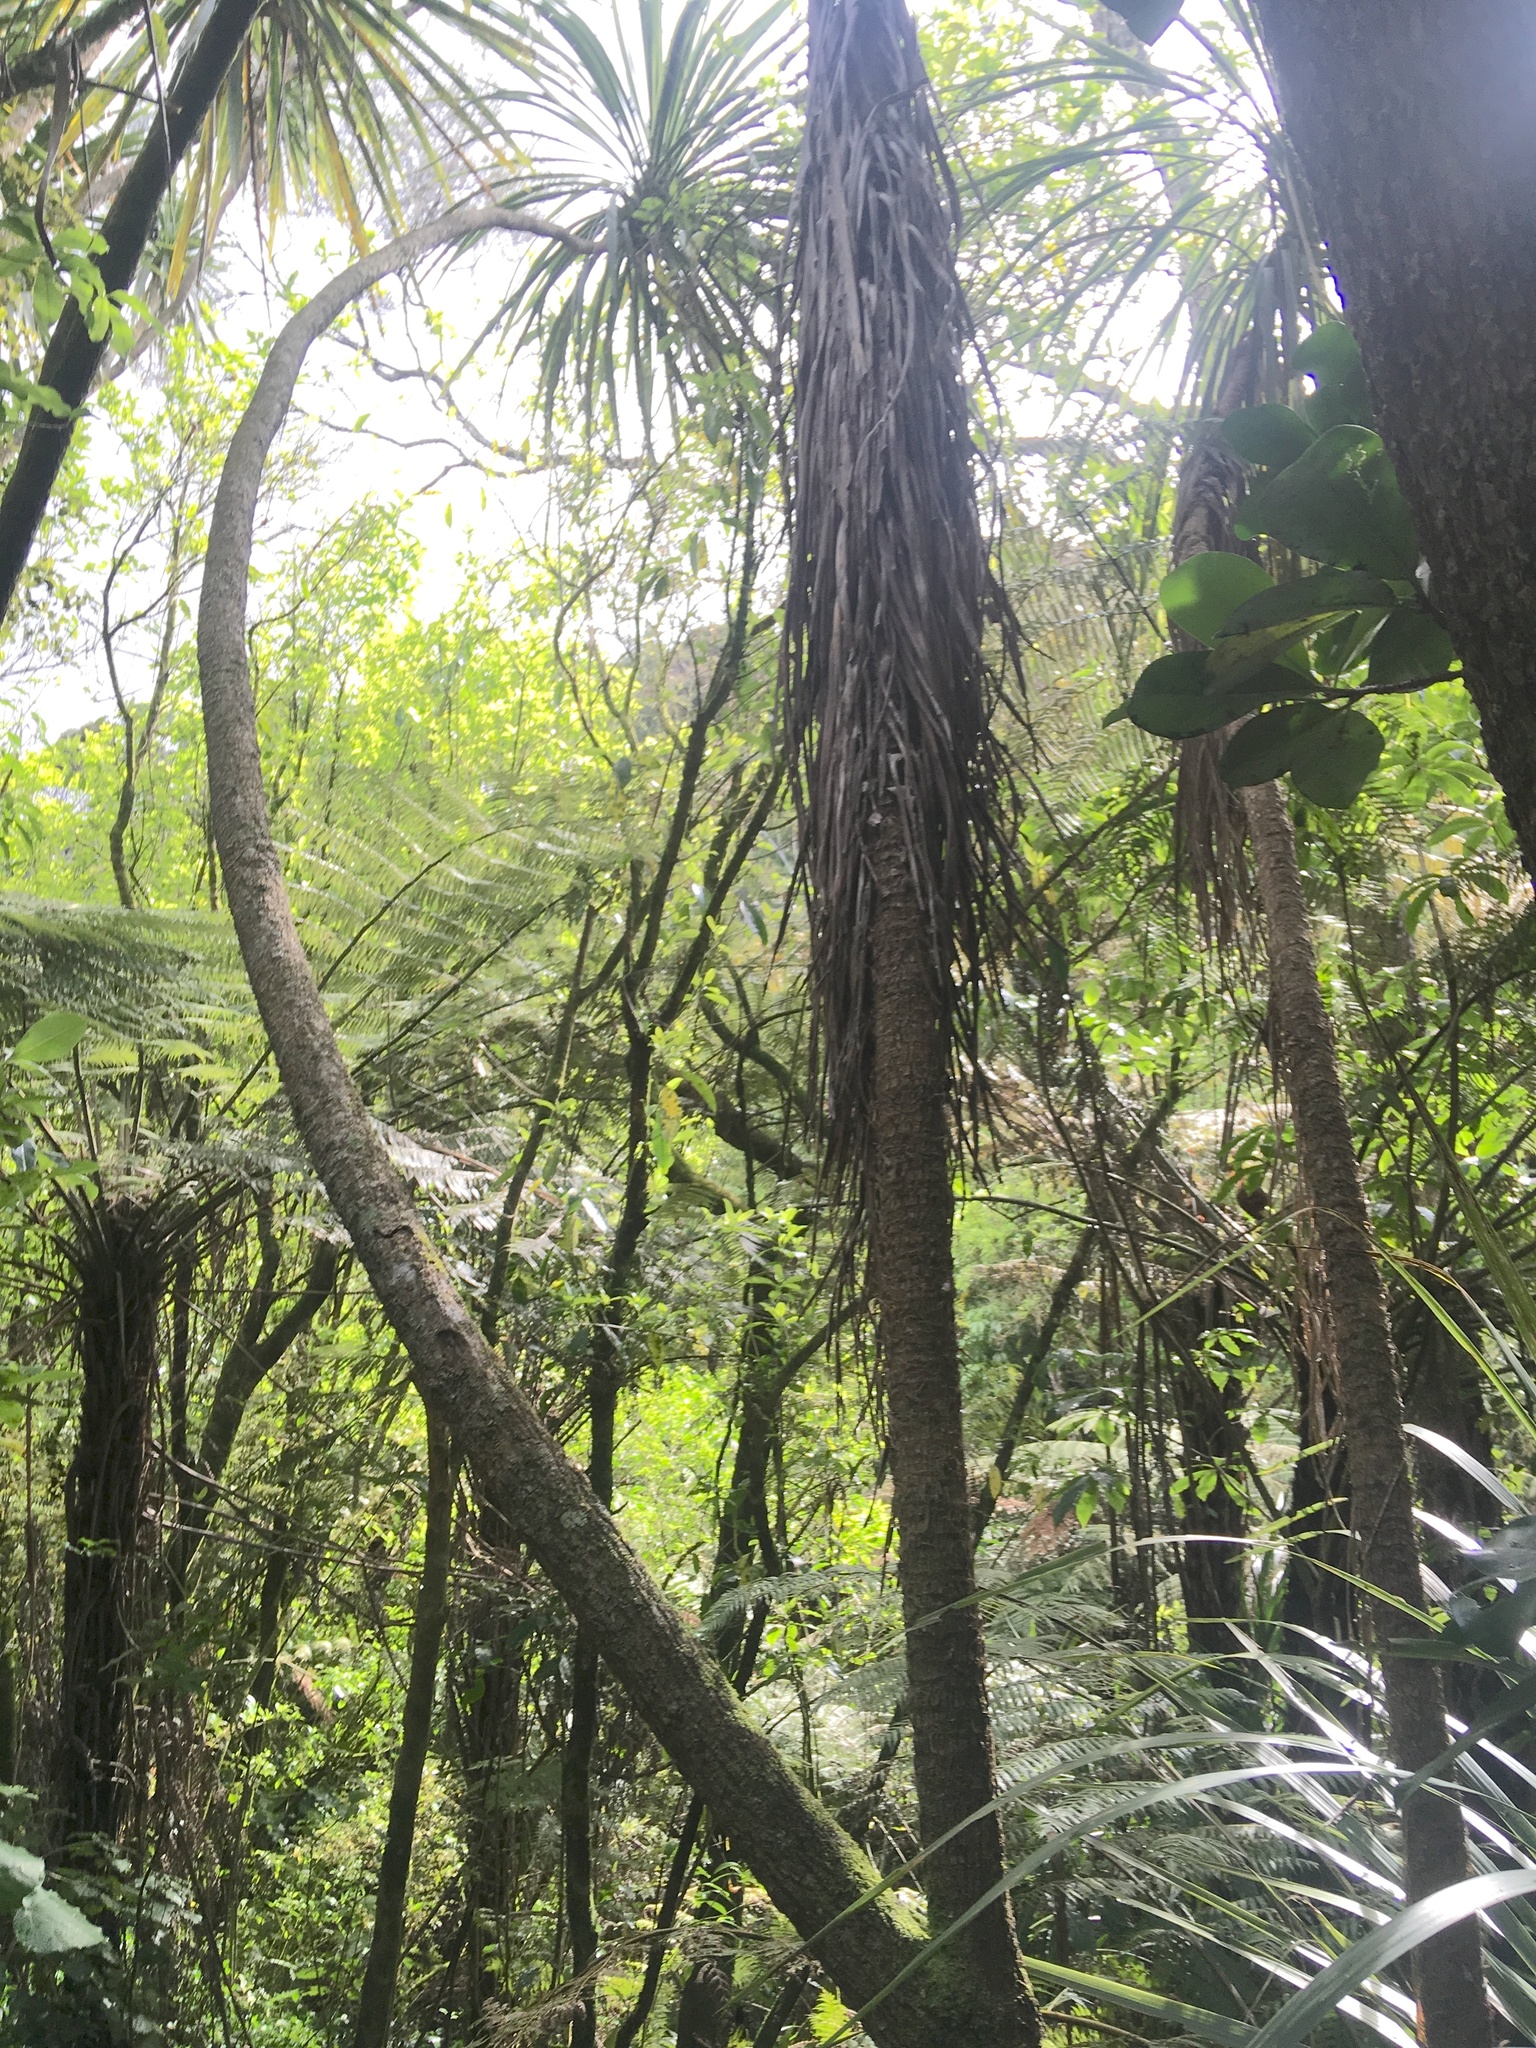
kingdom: Plantae
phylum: Tracheophyta
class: Liliopsida
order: Asparagales
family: Asparagaceae
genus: Cordyline
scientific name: Cordyline australis
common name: Cabbage-palm
